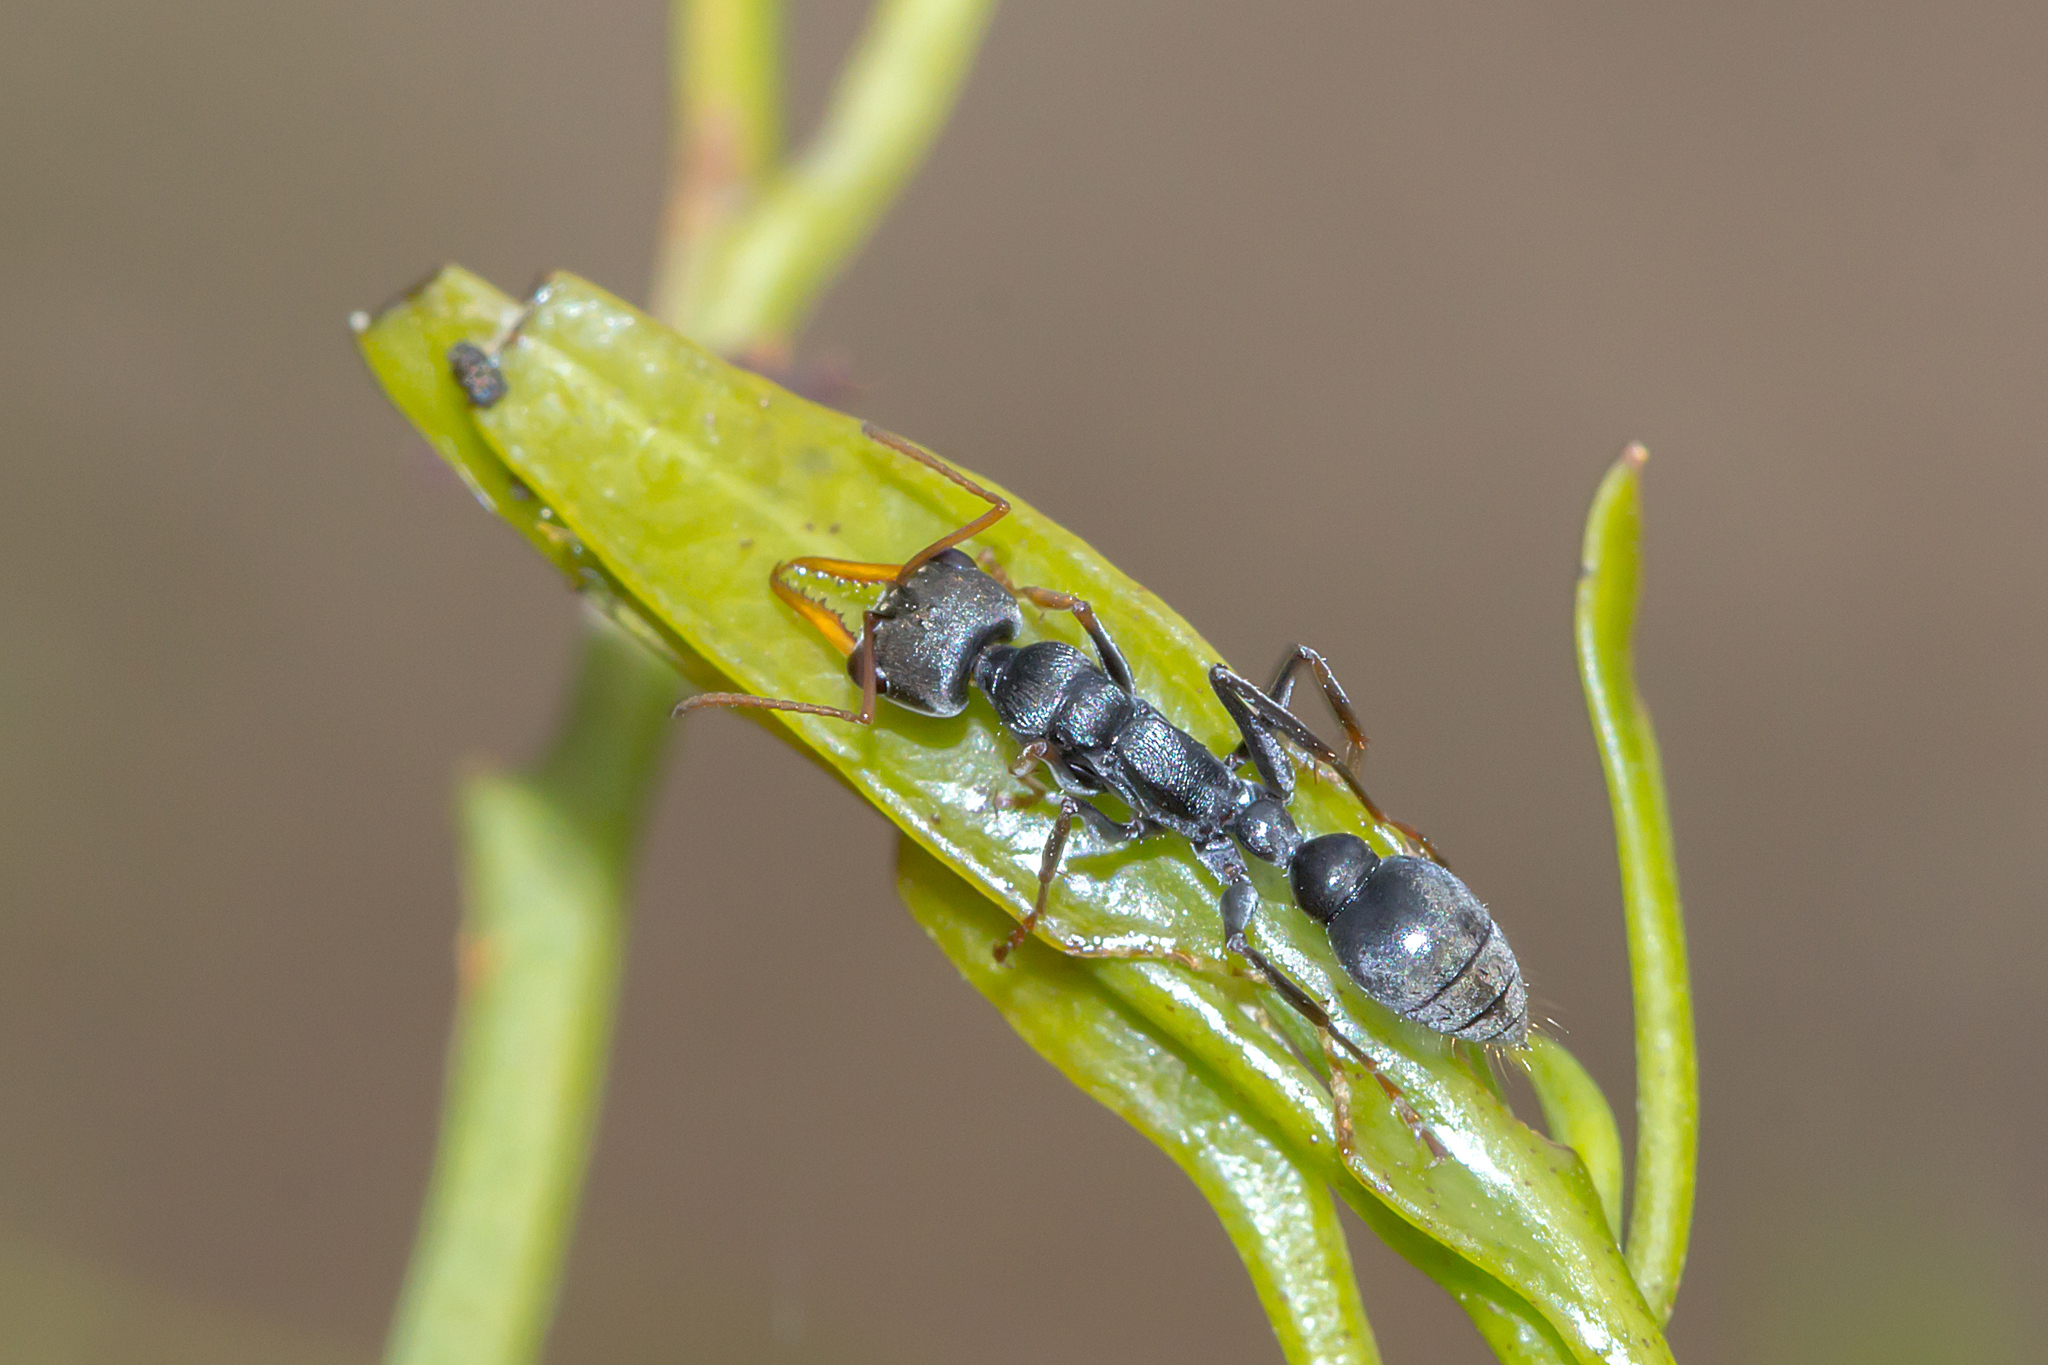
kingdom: Animalia
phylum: Arthropoda
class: Insecta
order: Hymenoptera
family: Formicidae
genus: Myrmecia
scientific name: Myrmecia pilosula
